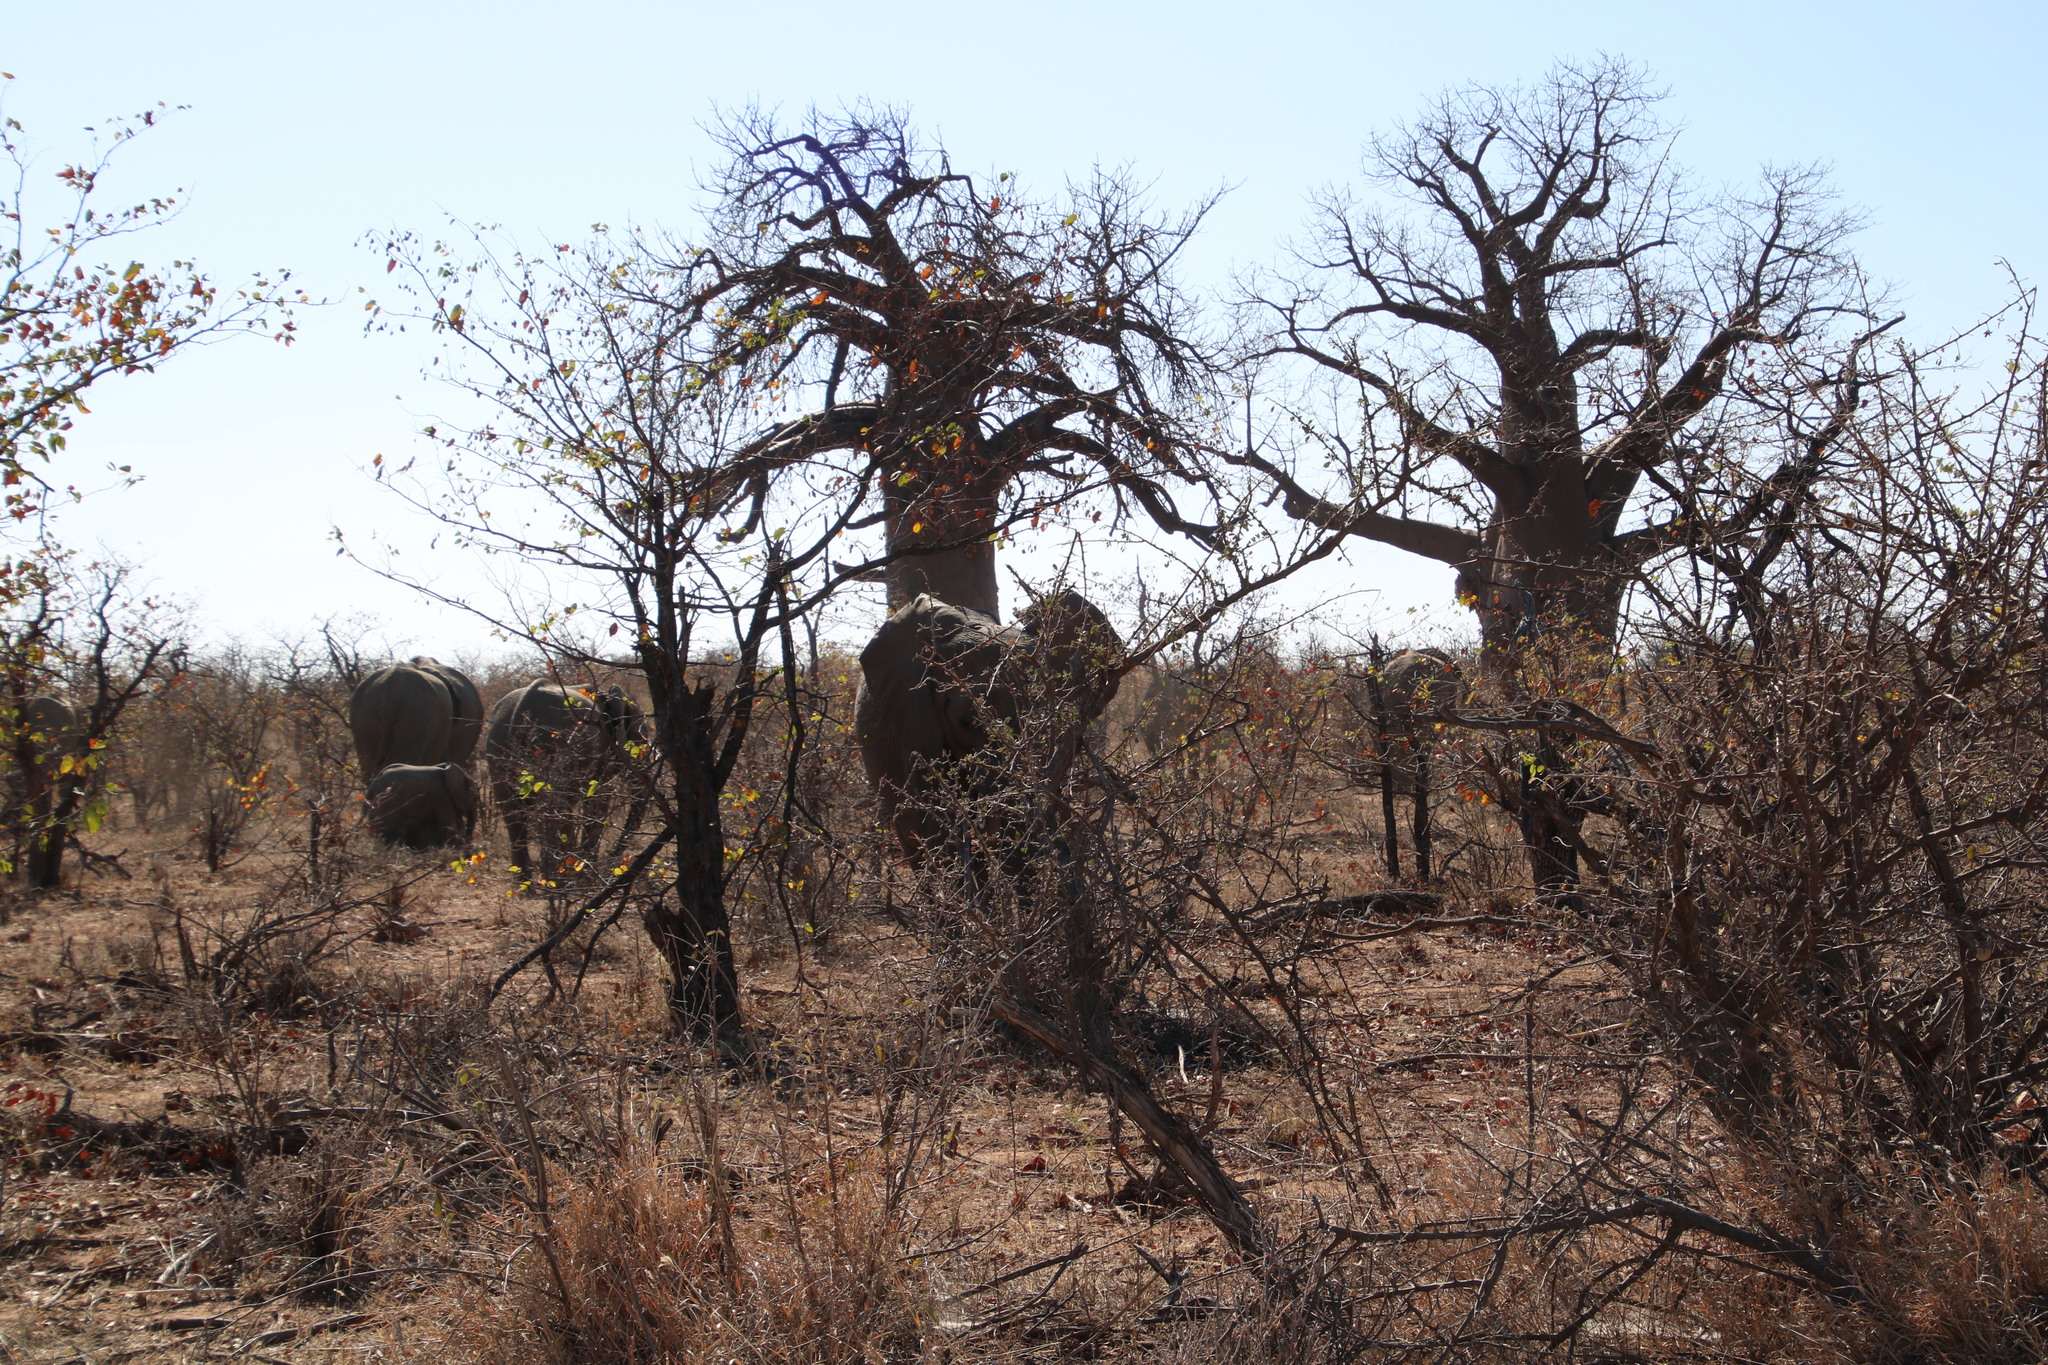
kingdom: Plantae
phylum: Tracheophyta
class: Magnoliopsida
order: Malvales
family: Malvaceae
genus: Adansonia
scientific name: Adansonia digitata
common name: Dead-rat-tree
